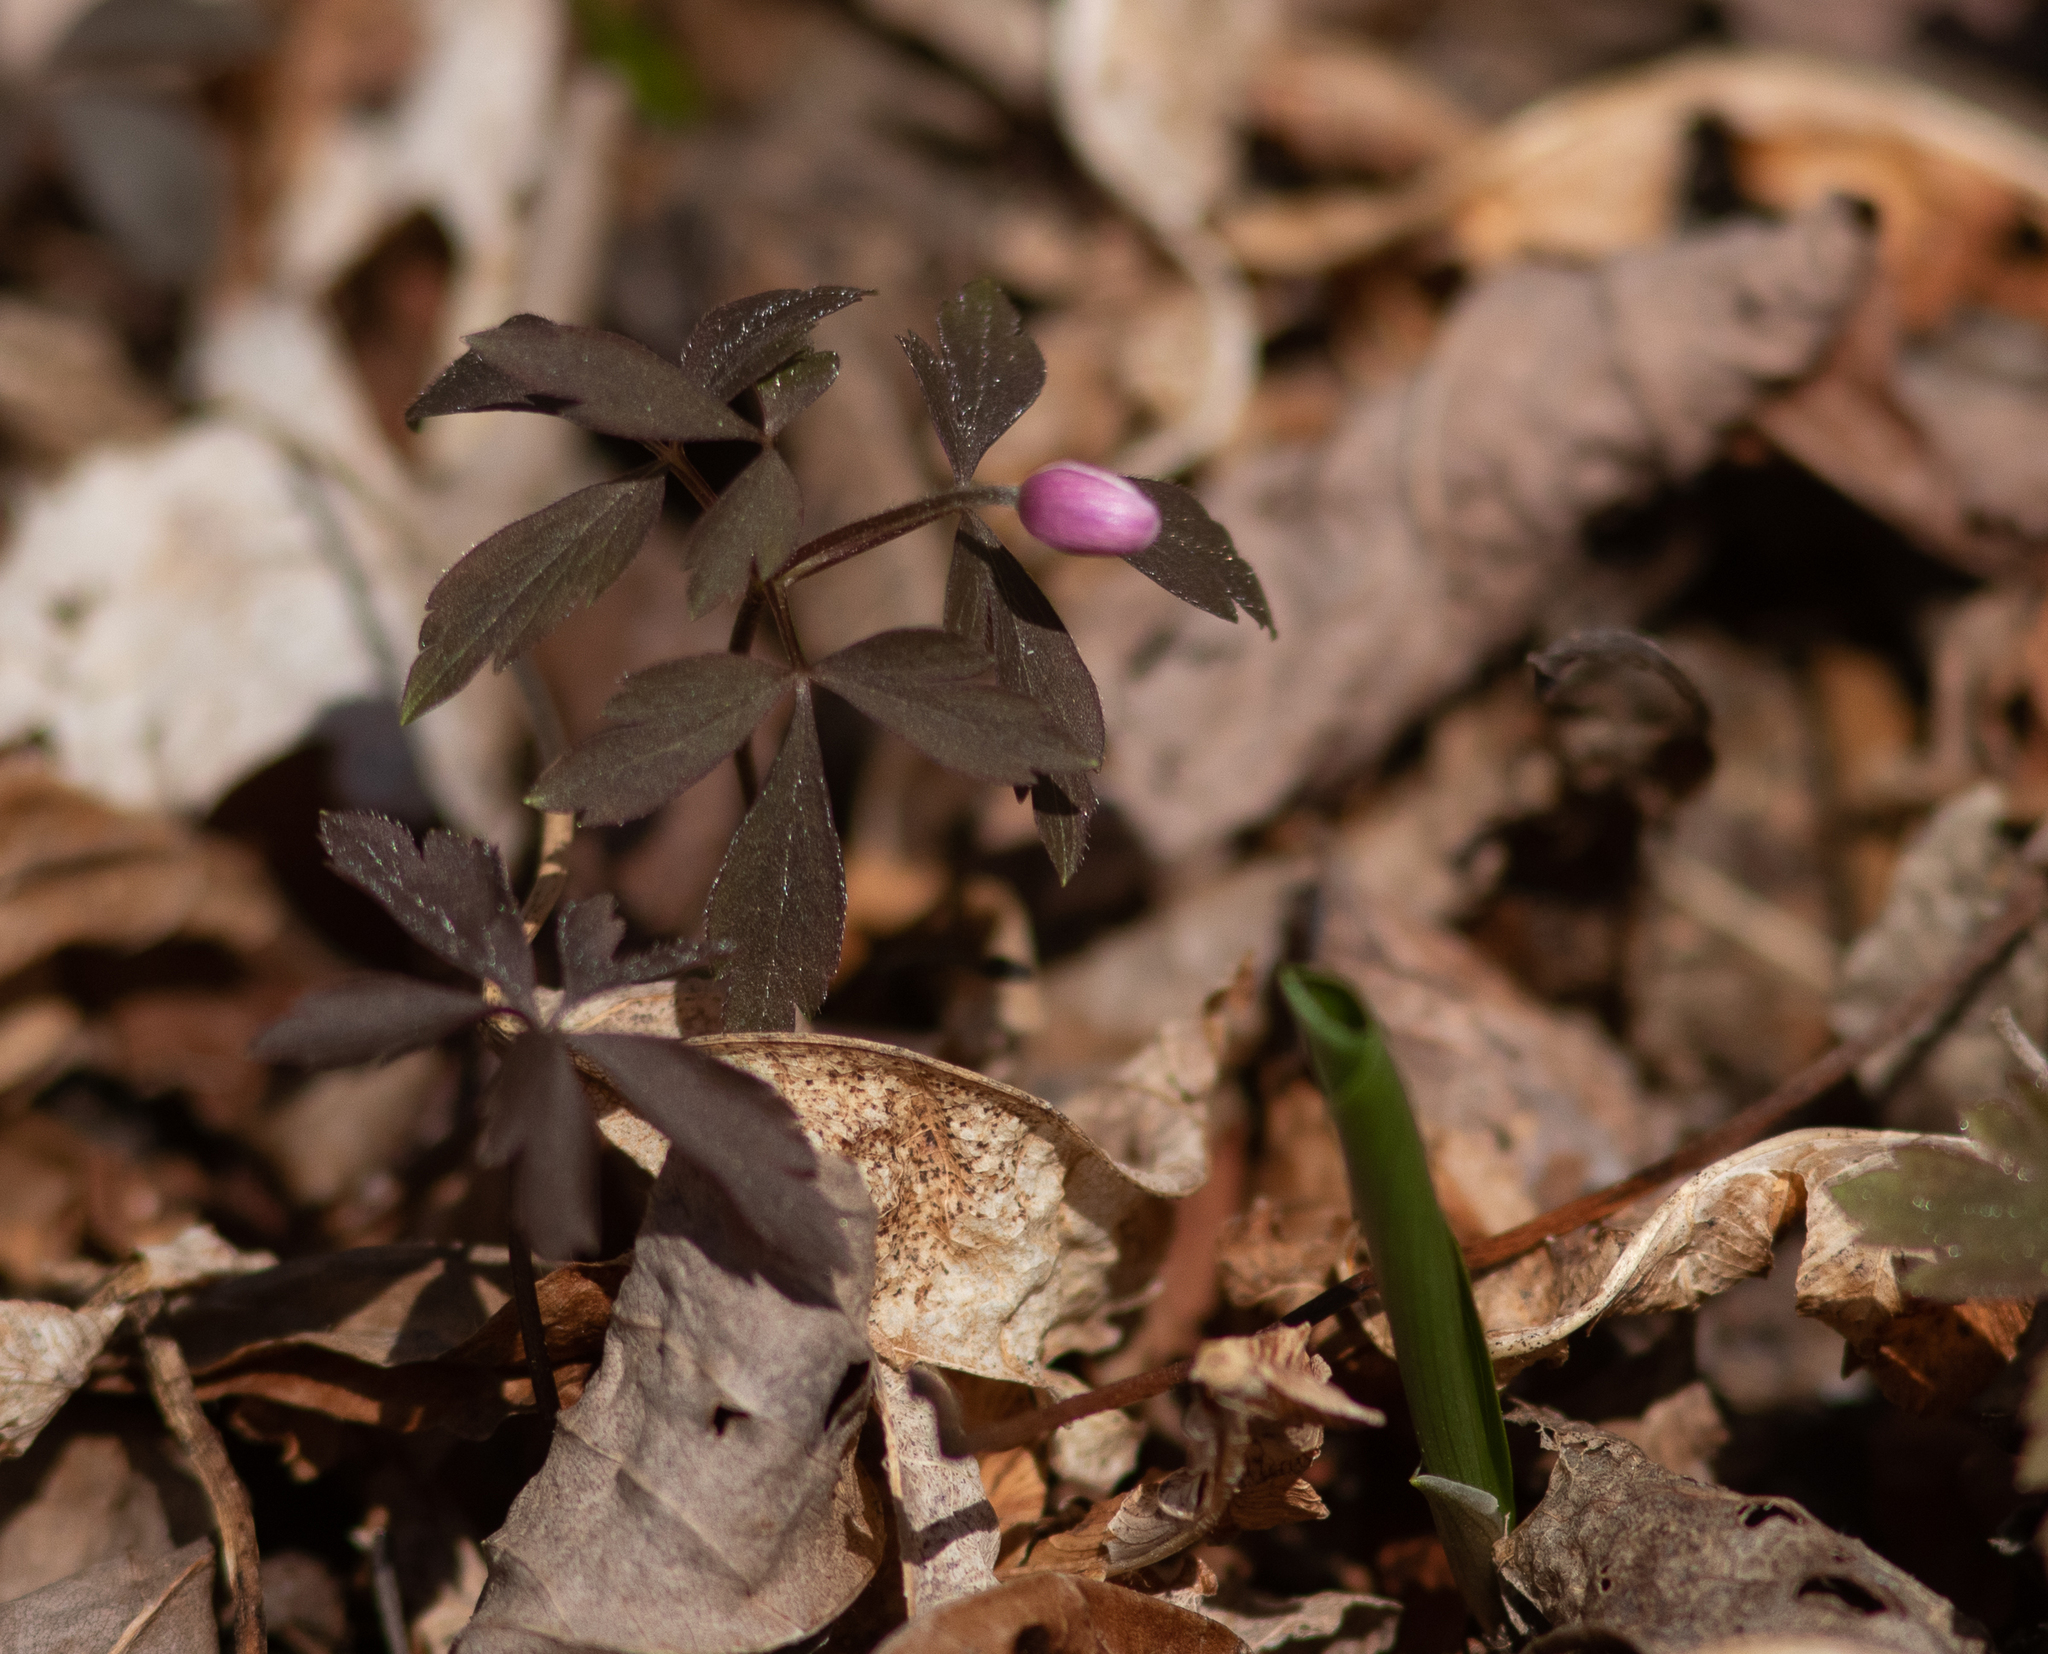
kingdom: Plantae
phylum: Tracheophyta
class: Magnoliopsida
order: Ranunculales
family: Ranunculaceae
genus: Anemone
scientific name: Anemone quinquefolia
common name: Wood anemone
